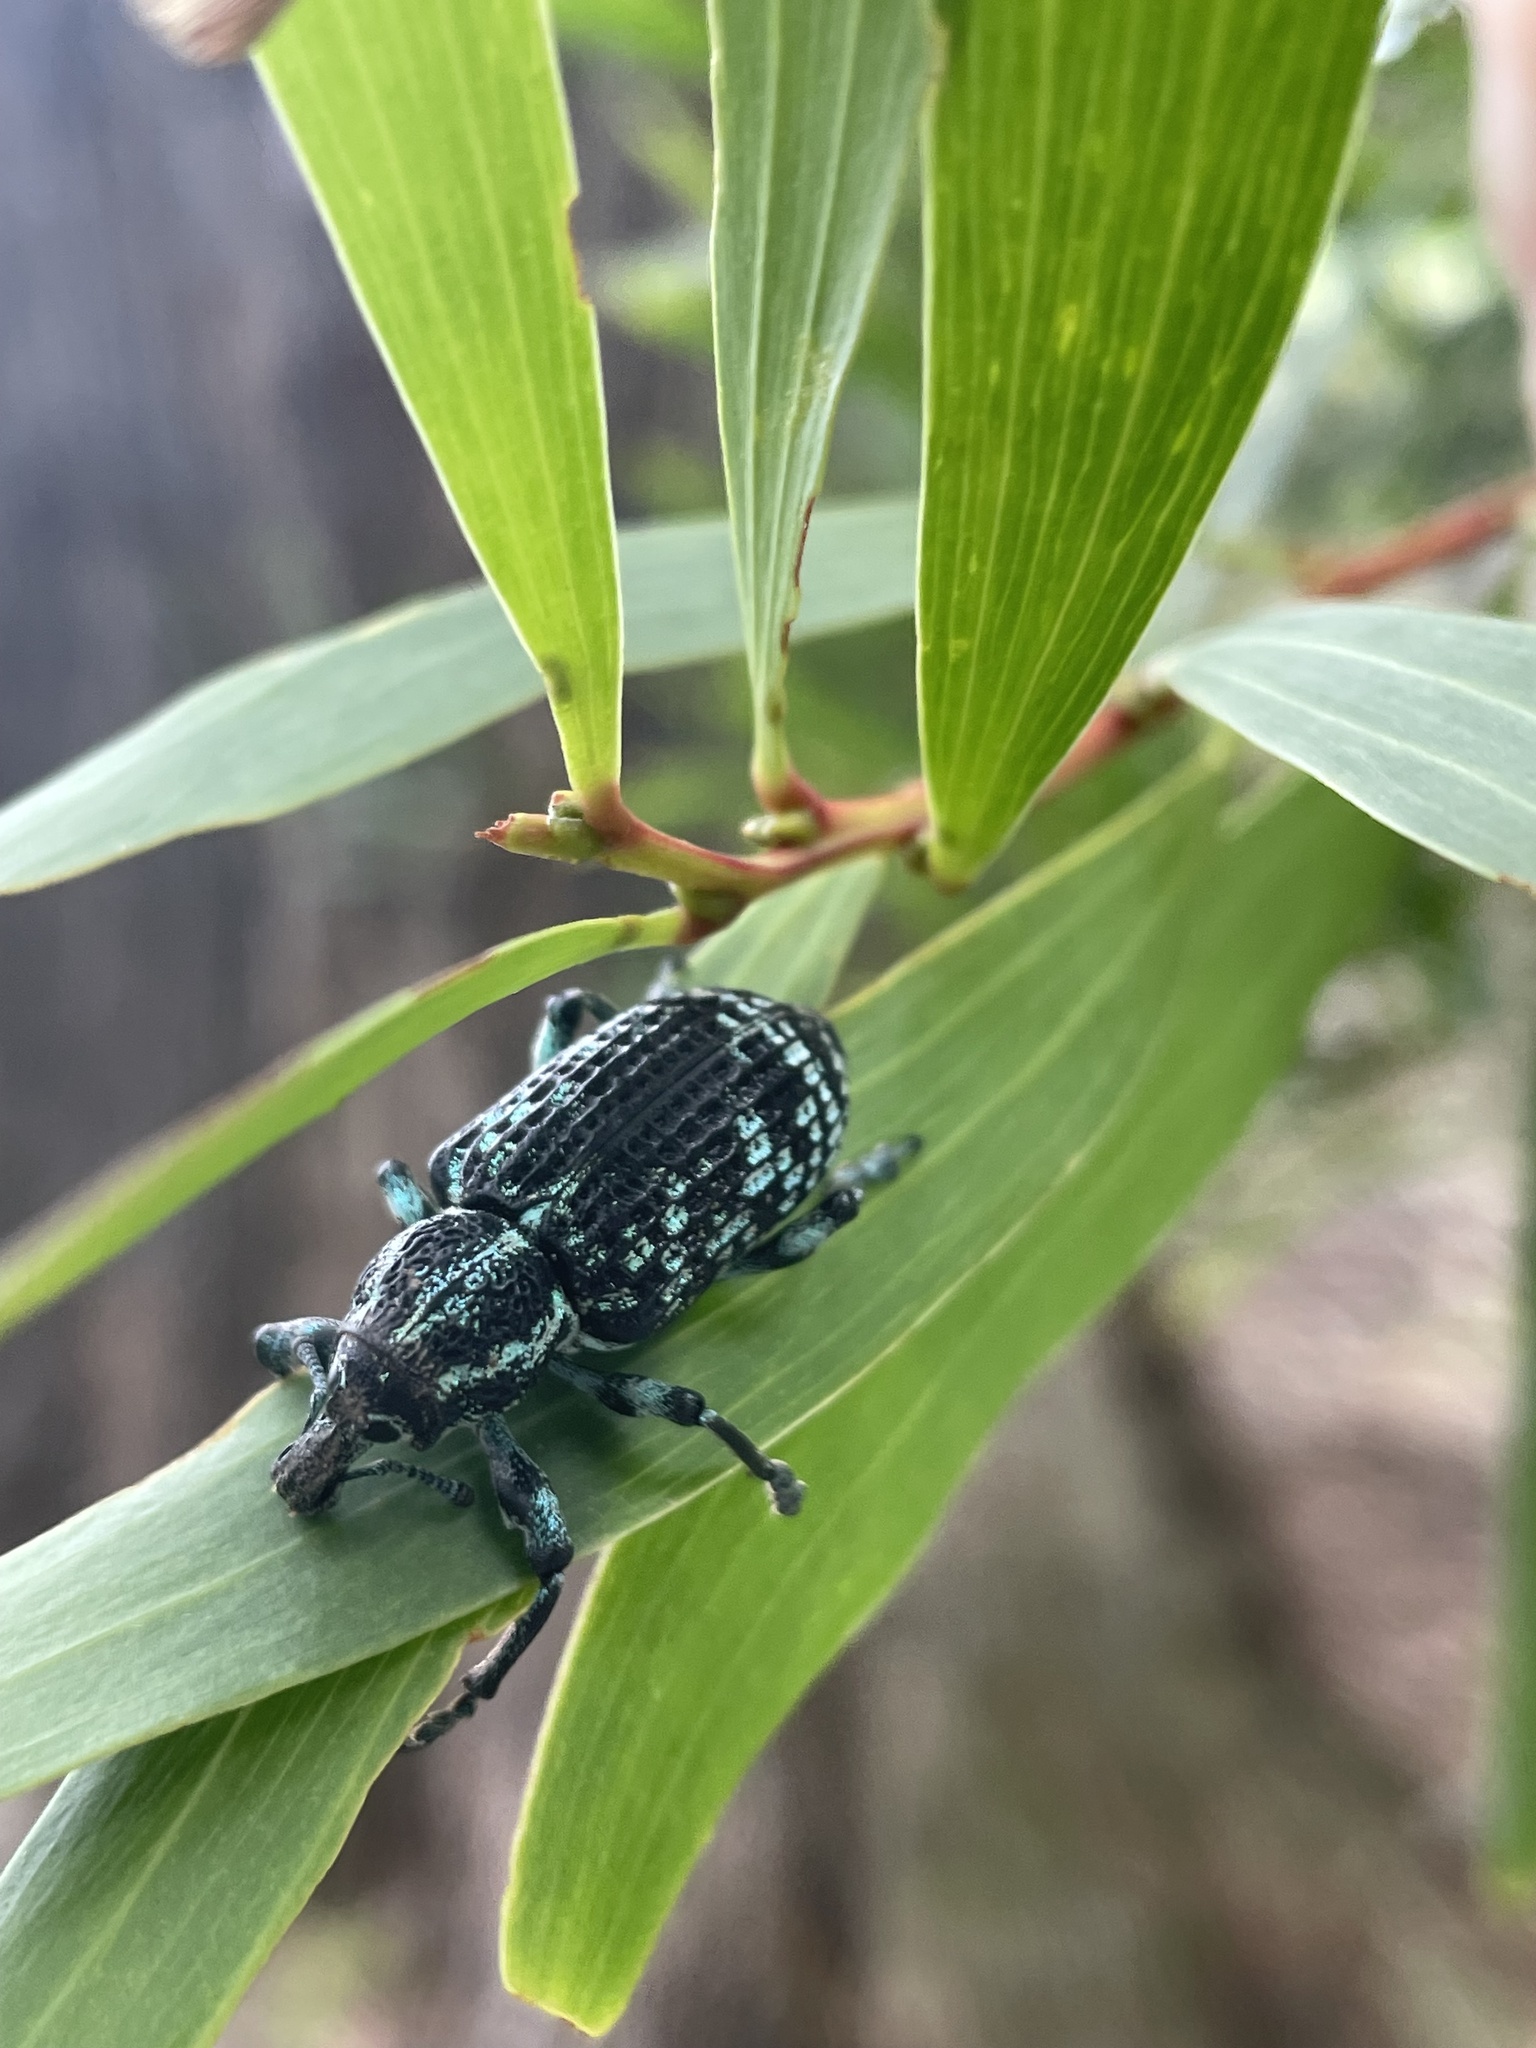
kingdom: Animalia
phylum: Arthropoda
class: Insecta
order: Coleoptera
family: Curculionidae
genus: Chrysolopus
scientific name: Chrysolopus spectabilis
